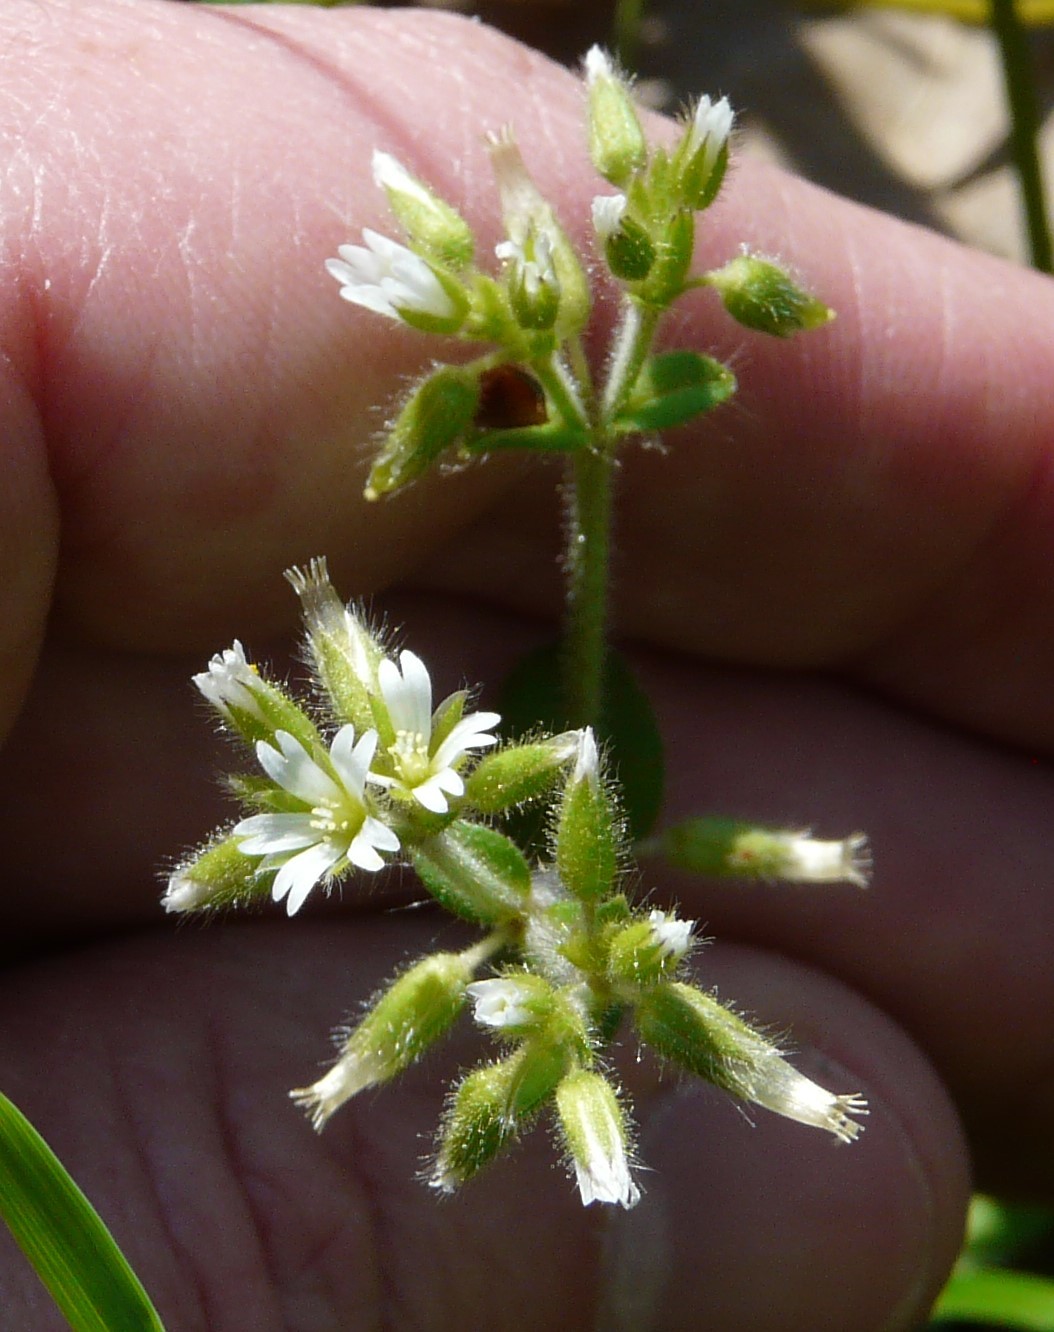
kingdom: Plantae
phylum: Tracheophyta
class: Magnoliopsida
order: Caryophyllales
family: Caryophyllaceae
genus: Cerastium
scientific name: Cerastium glomeratum
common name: Sticky chickweed
